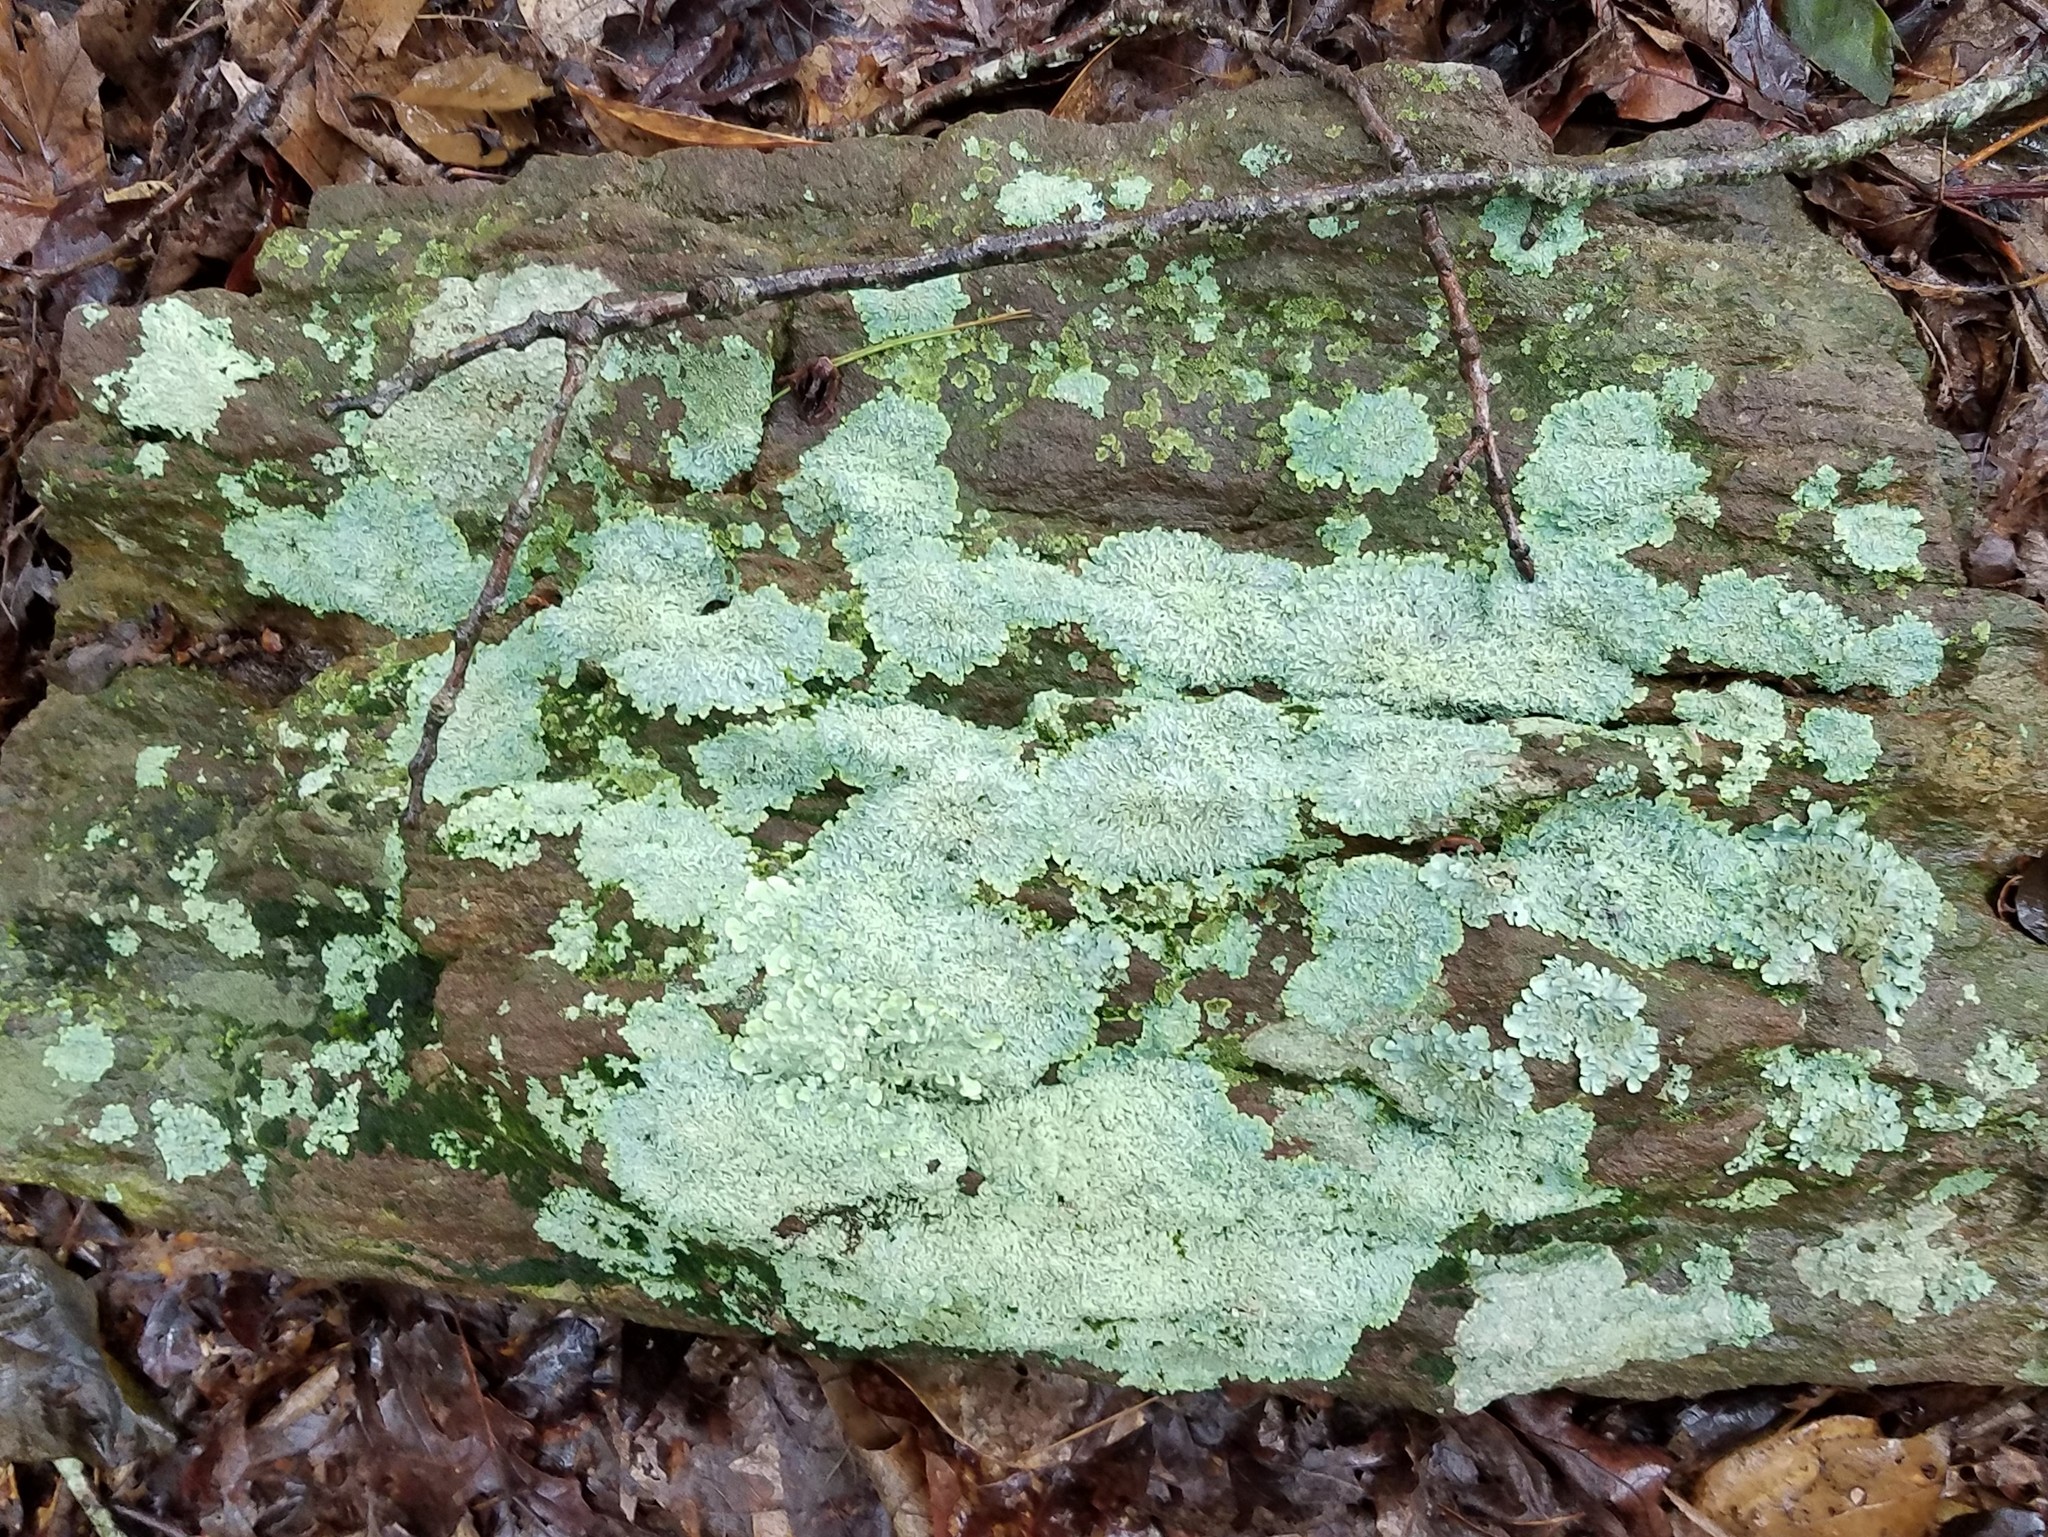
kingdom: Fungi
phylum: Ascomycota
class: Lecanoromycetes
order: Caliciales
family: Physciaceae
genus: Polyblastidium
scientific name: Polyblastidium albicans
